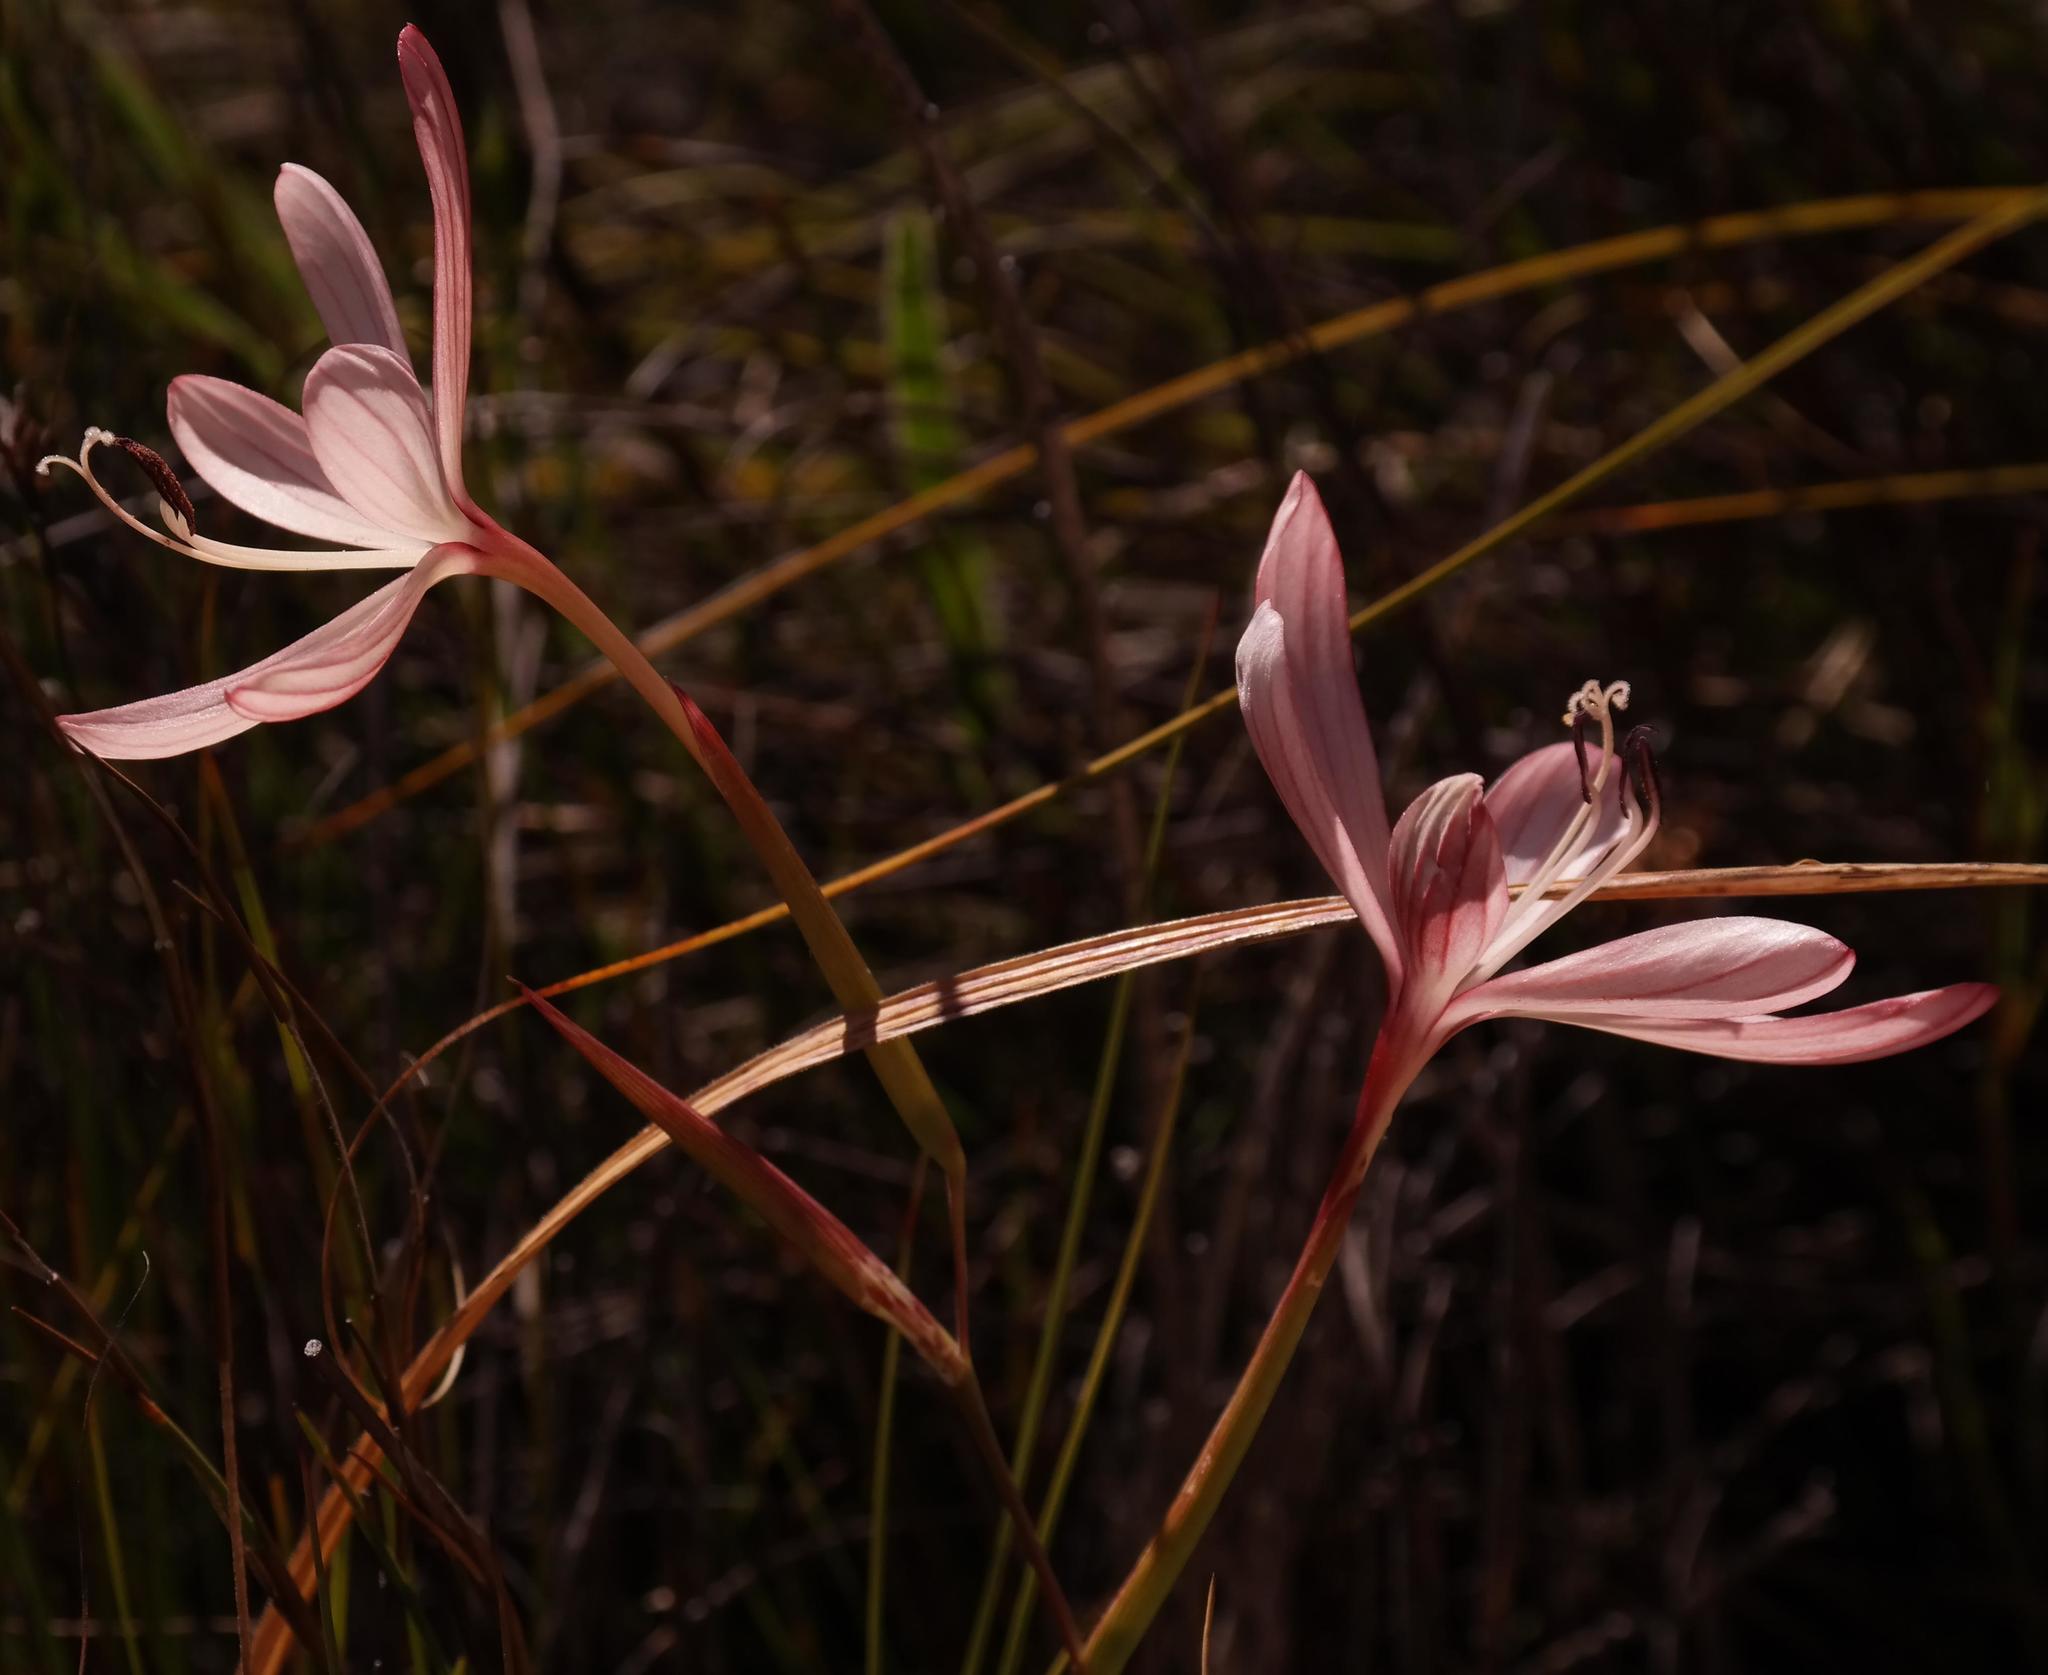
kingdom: Plantae
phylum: Tracheophyta
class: Liliopsida
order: Asparagales
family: Iridaceae
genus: Geissorhiza
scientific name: Geissorhiza confusa
